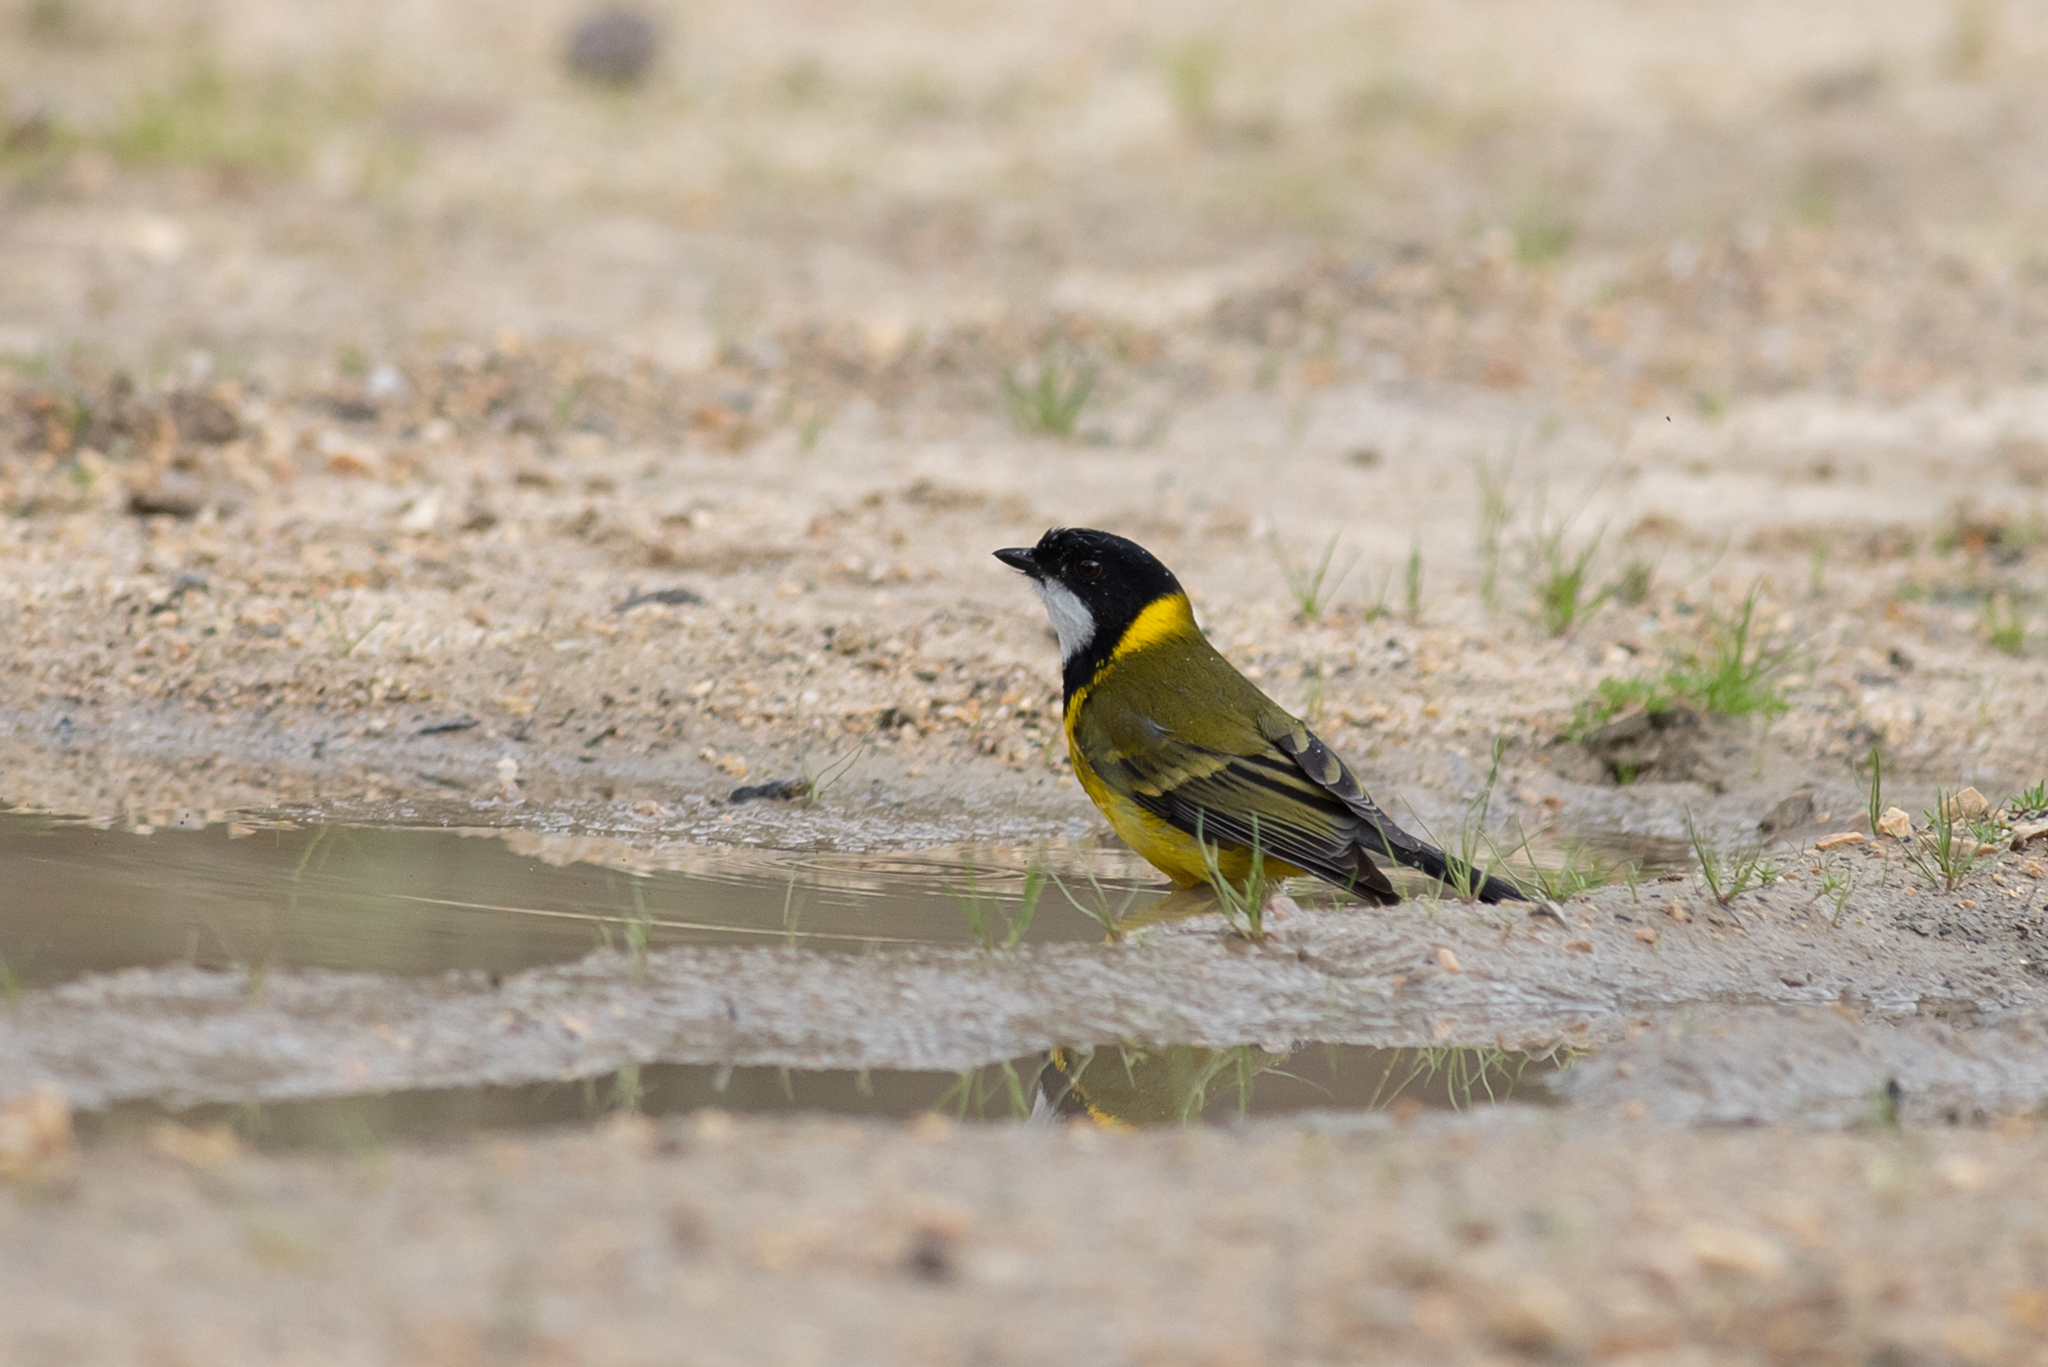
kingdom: Animalia
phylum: Chordata
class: Aves
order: Passeriformes
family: Pachycephalidae
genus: Pachycephala
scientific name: Pachycephala fuliginosa
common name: Western whistler
